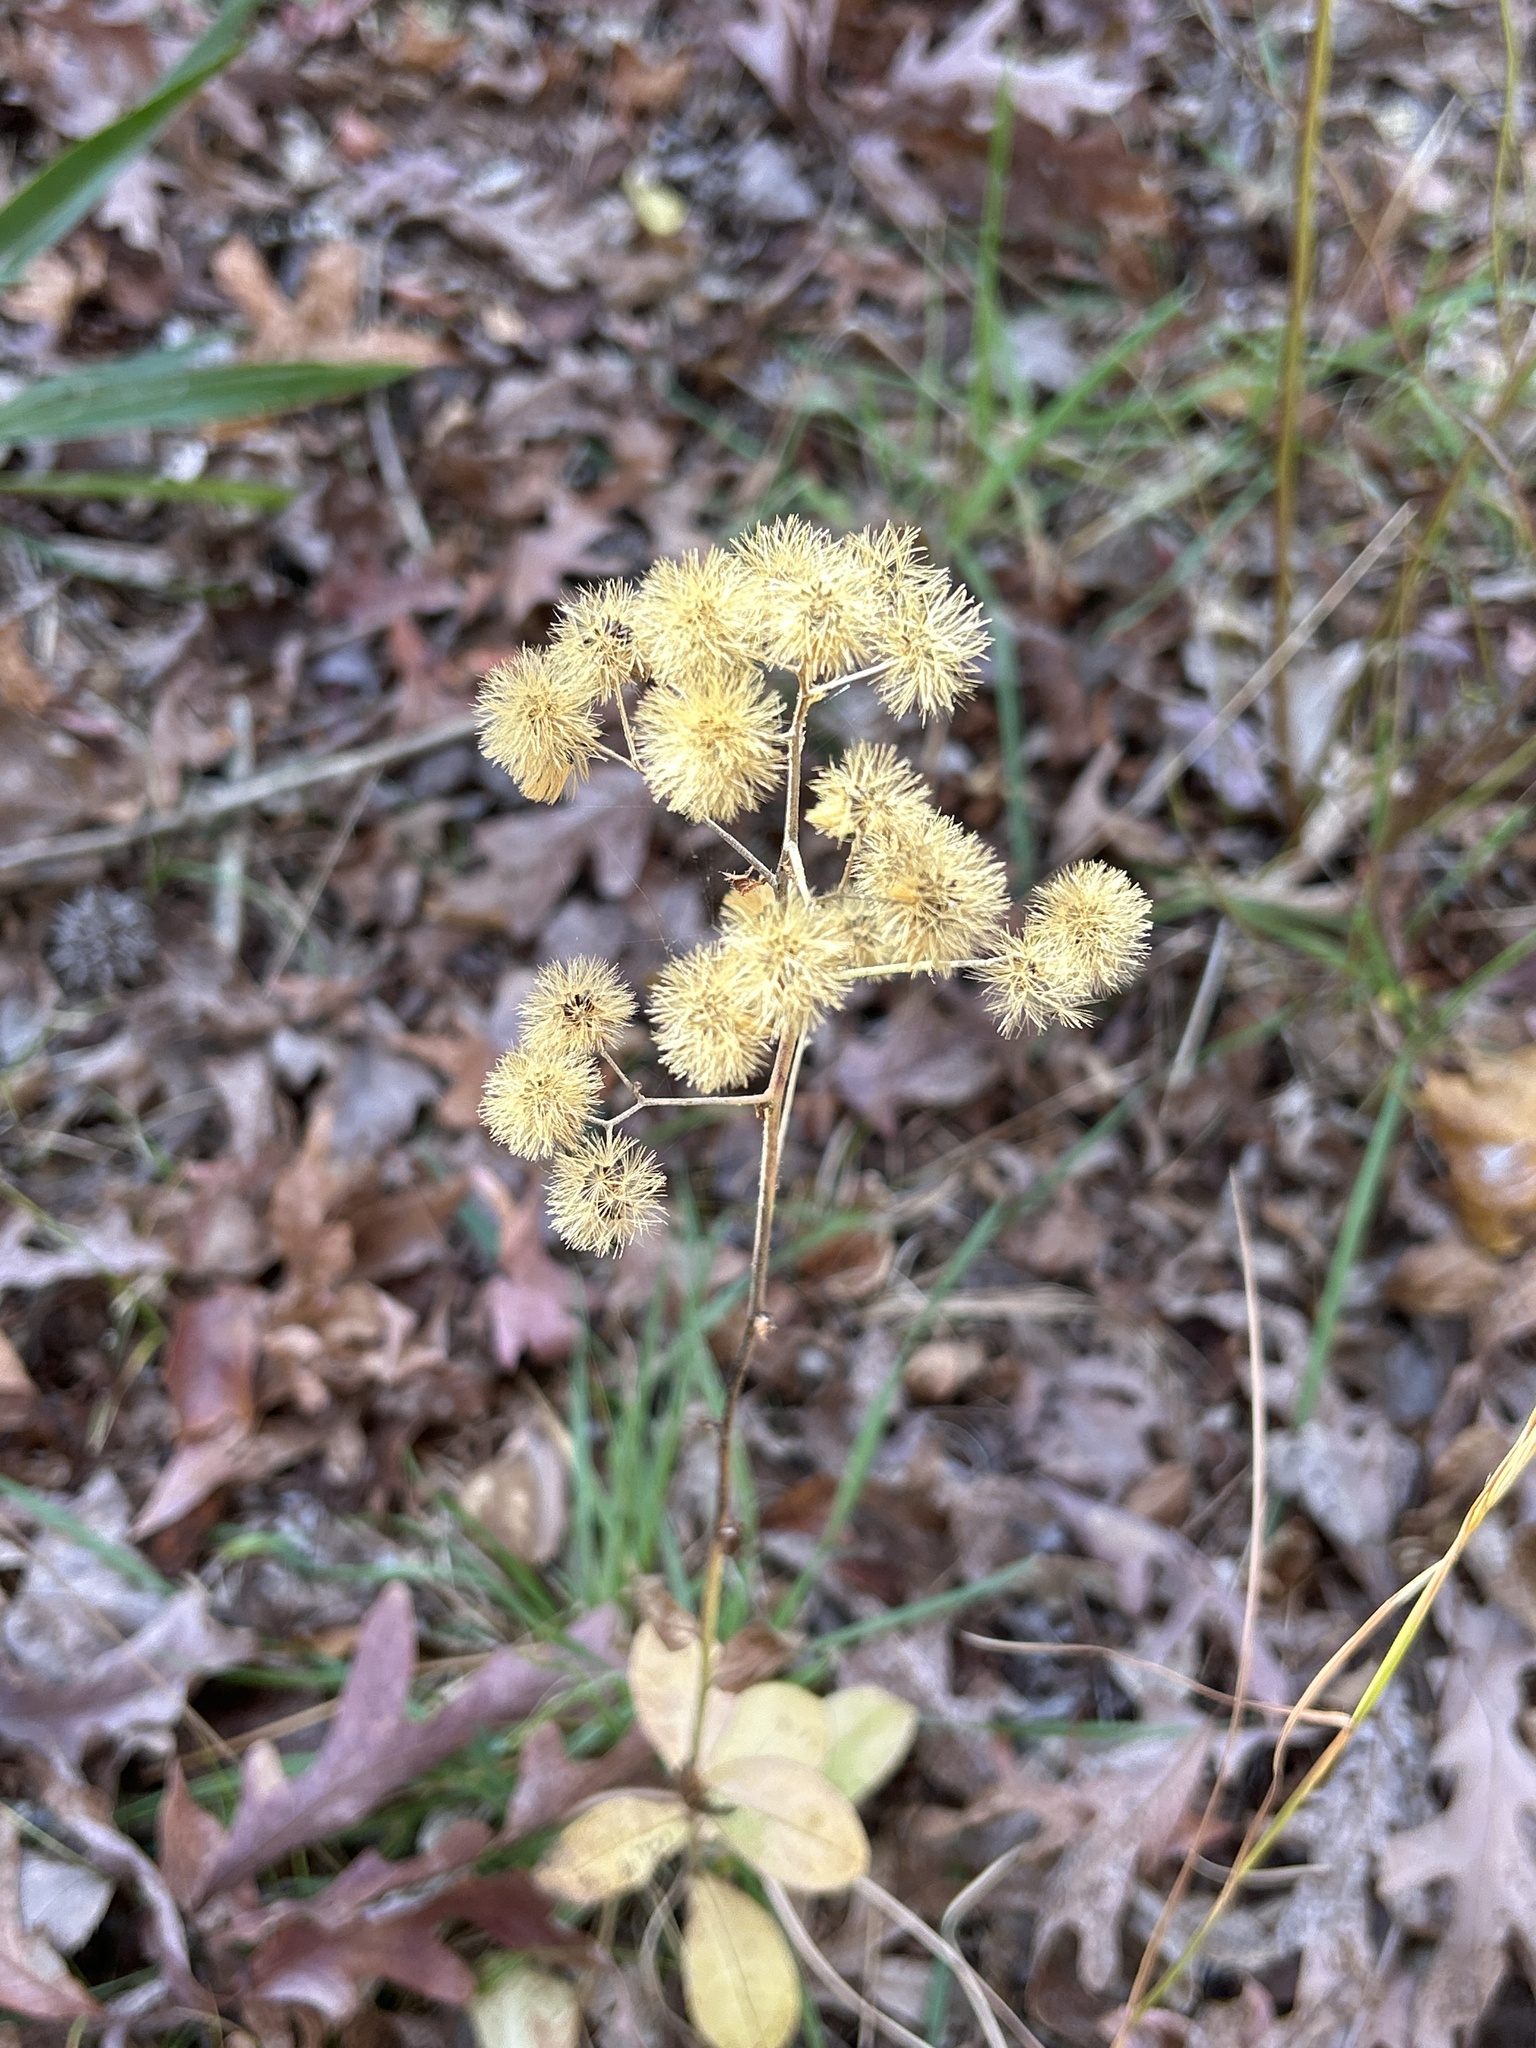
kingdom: Plantae
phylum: Tracheophyta
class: Magnoliopsida
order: Asterales
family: Asteraceae
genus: Hieracium
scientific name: Hieracium scabrum
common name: Rough hawkweed
